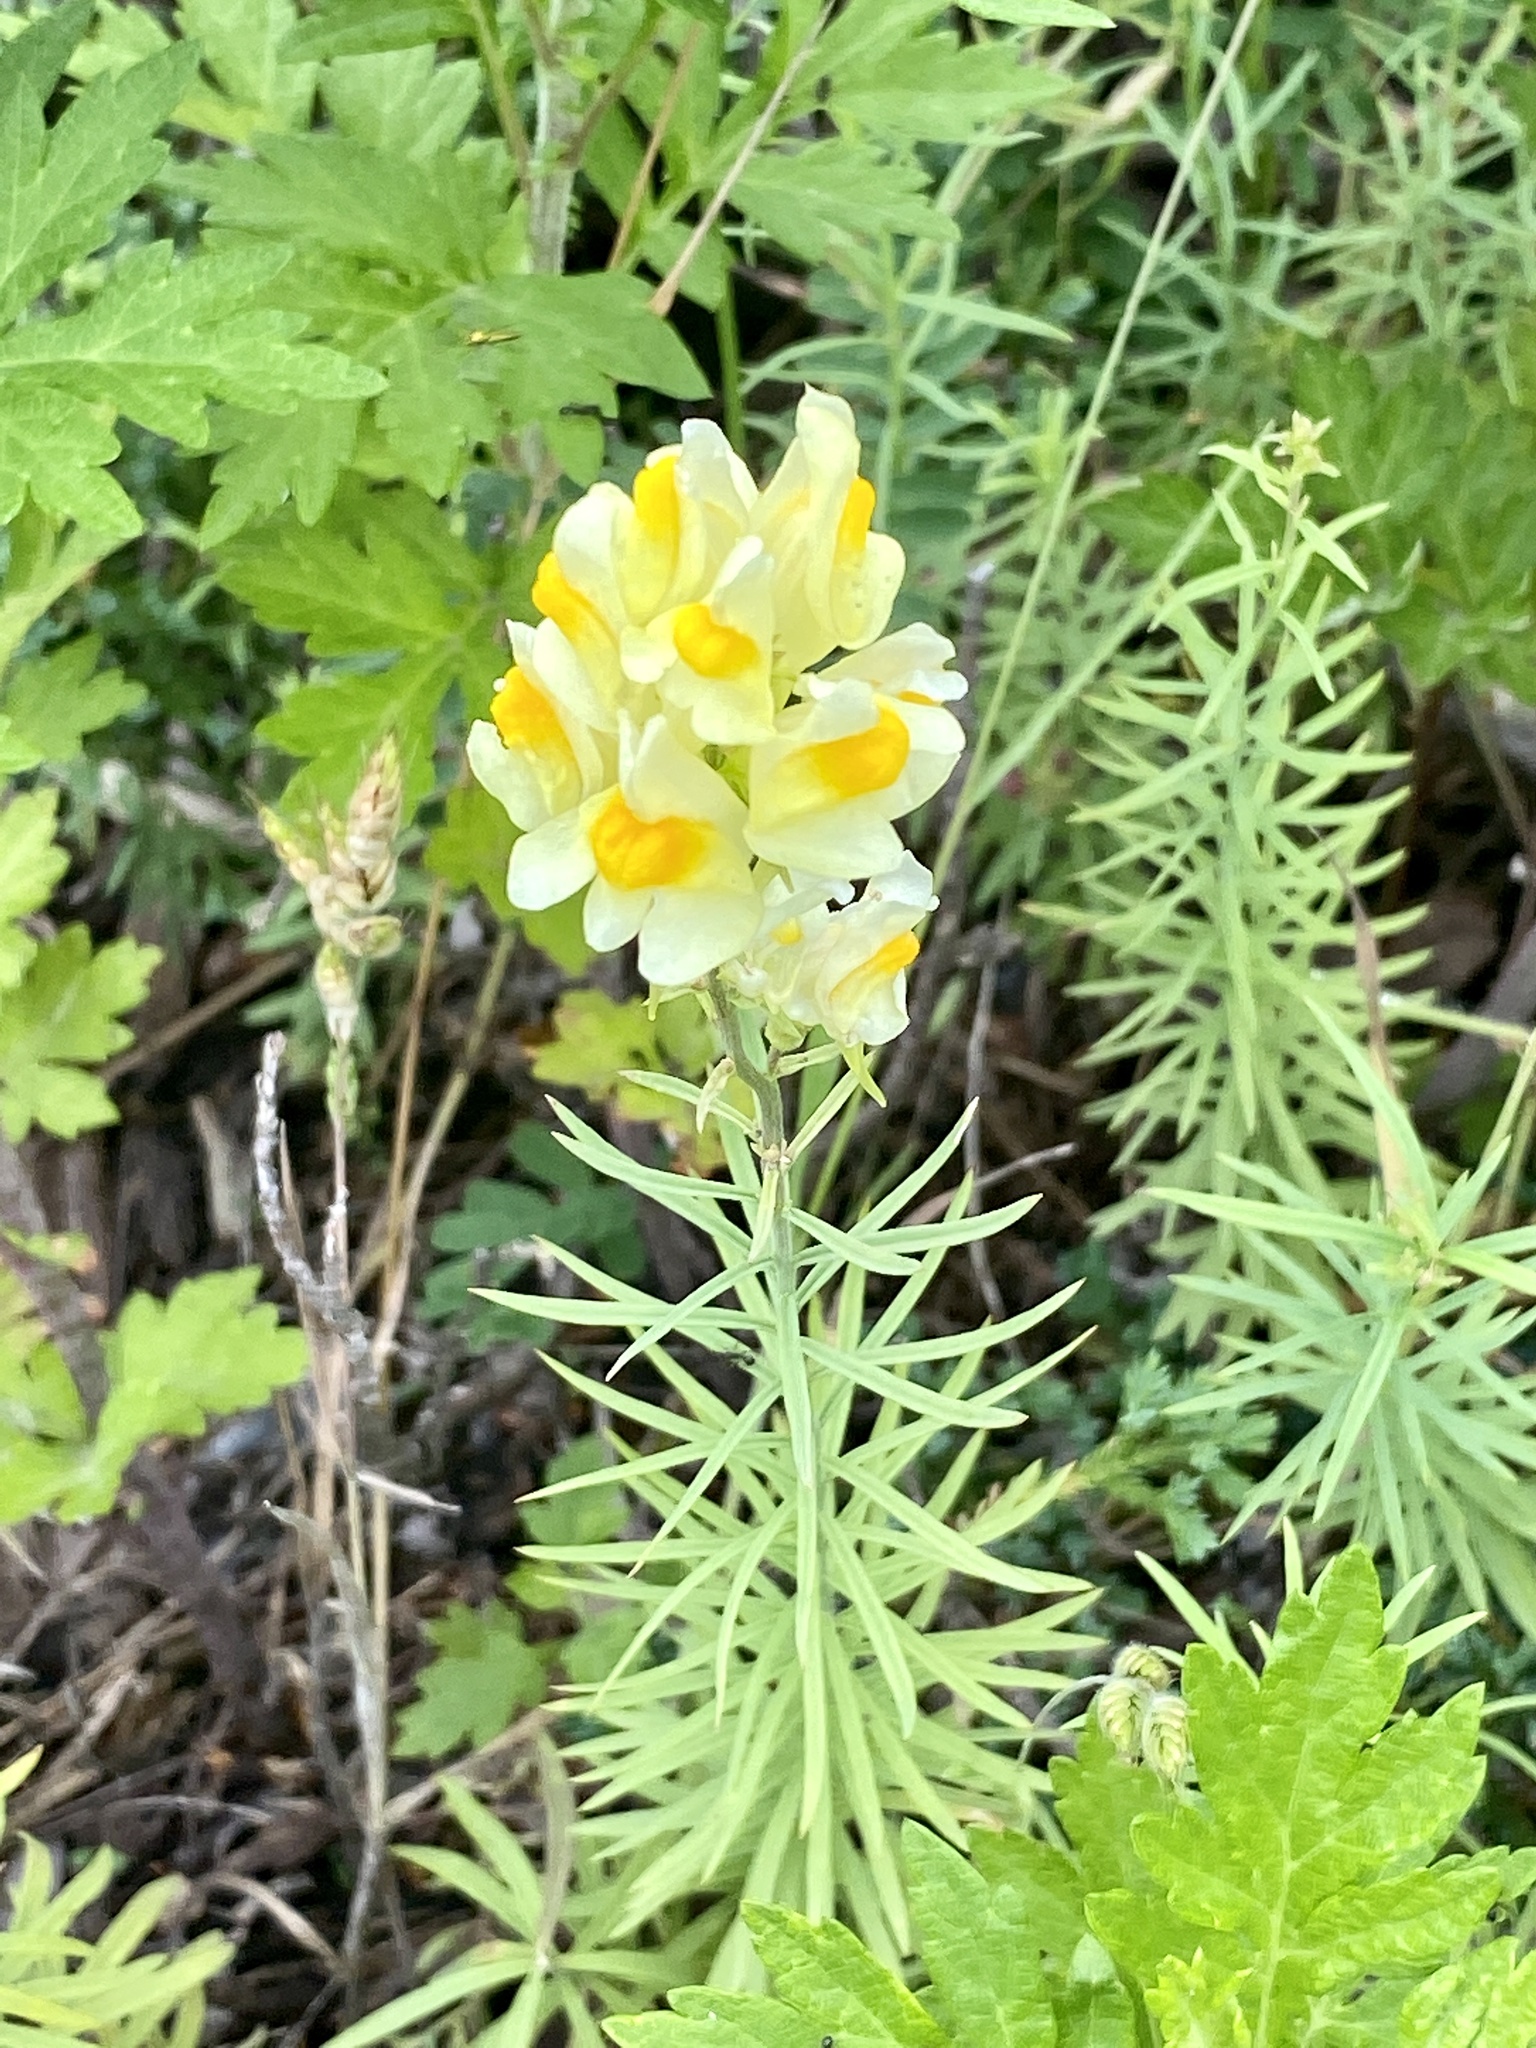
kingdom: Plantae
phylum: Tracheophyta
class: Magnoliopsida
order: Lamiales
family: Plantaginaceae
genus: Linaria
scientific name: Linaria vulgaris
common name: Butter and eggs
